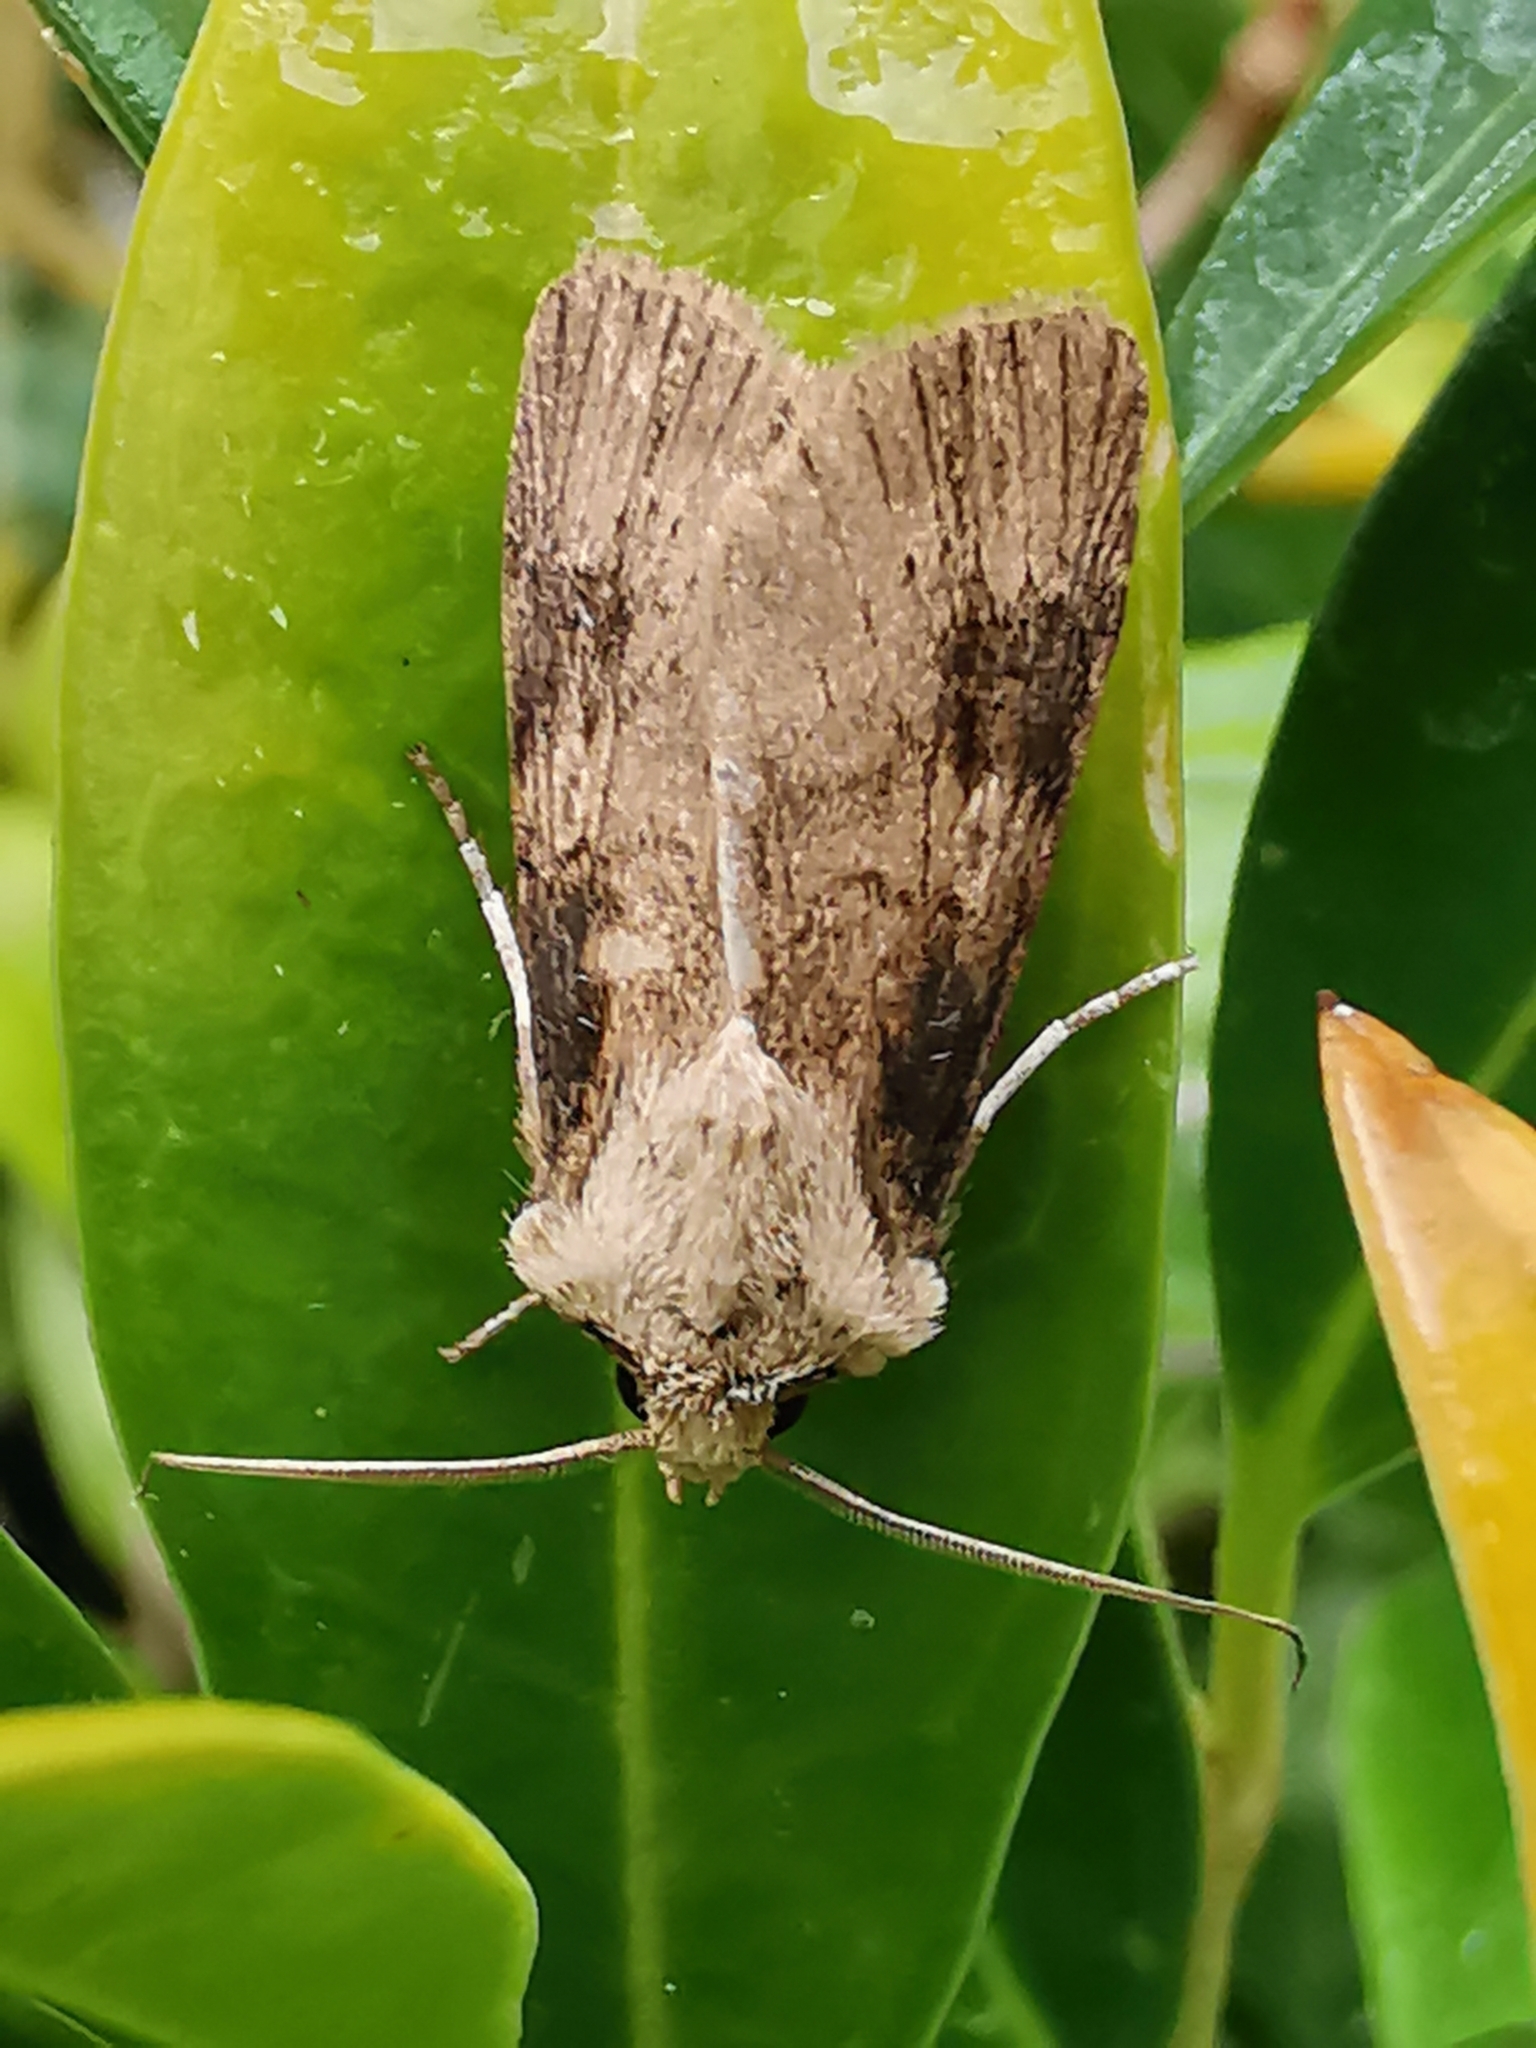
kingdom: Animalia
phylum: Arthropoda
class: Insecta
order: Lepidoptera
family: Noctuidae
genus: Agrotis
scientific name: Agrotis puta
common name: Shuttle-shaped dart
